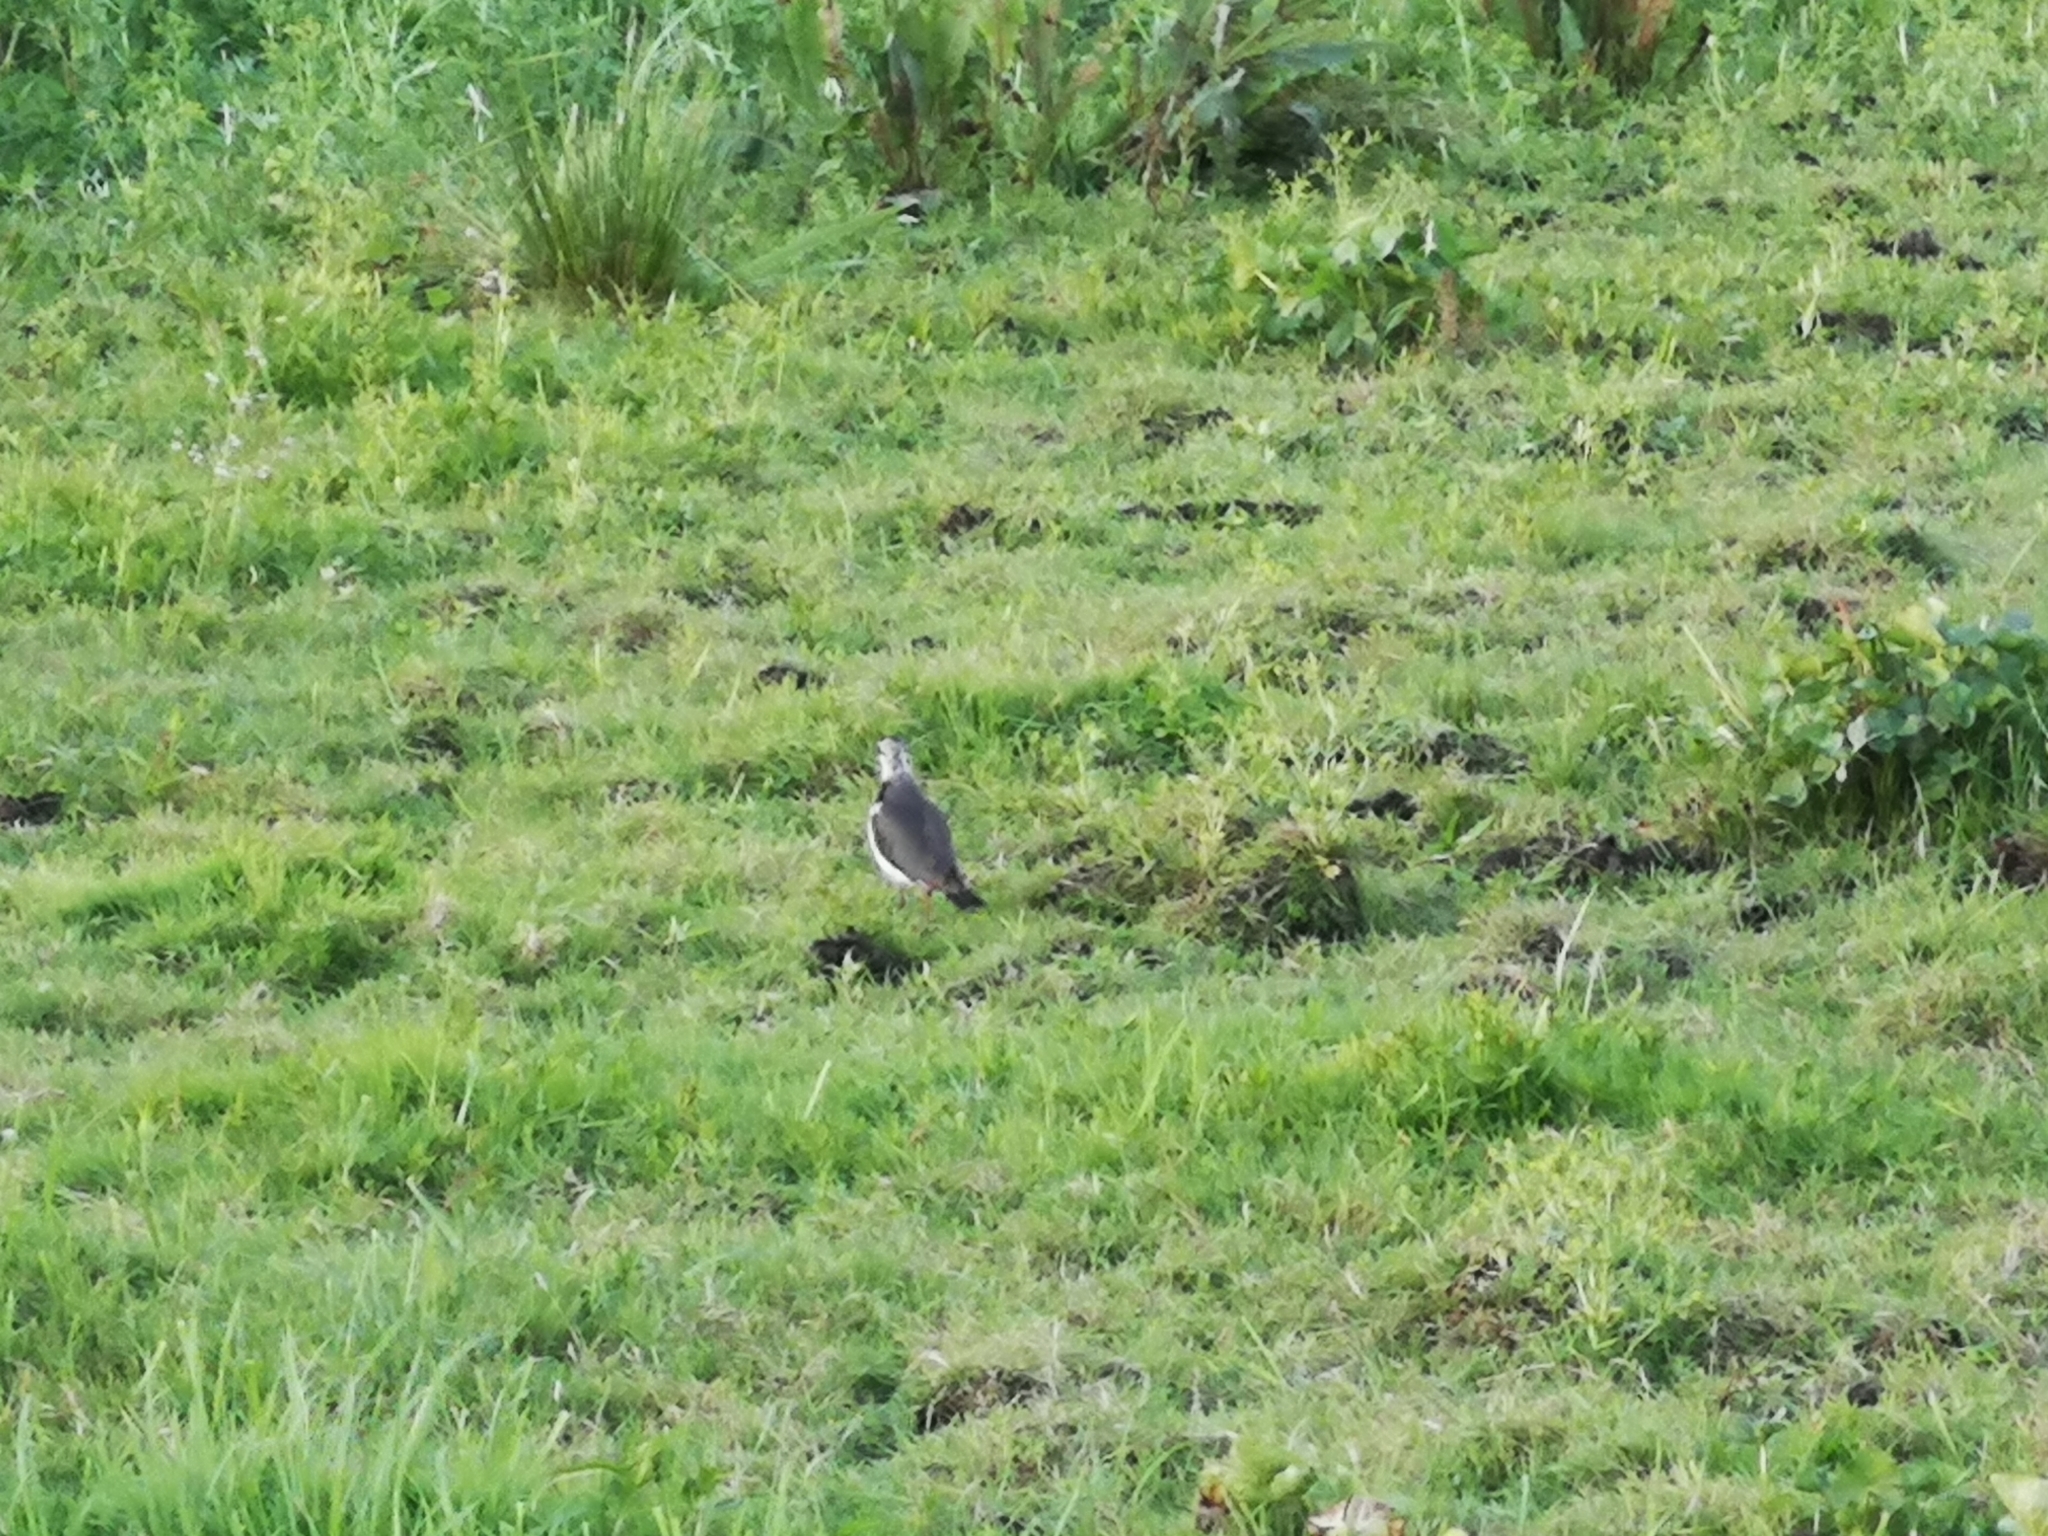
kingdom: Animalia
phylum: Chordata
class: Aves
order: Charadriiformes
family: Charadriidae
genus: Vanellus
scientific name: Vanellus vanellus
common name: Northern lapwing
